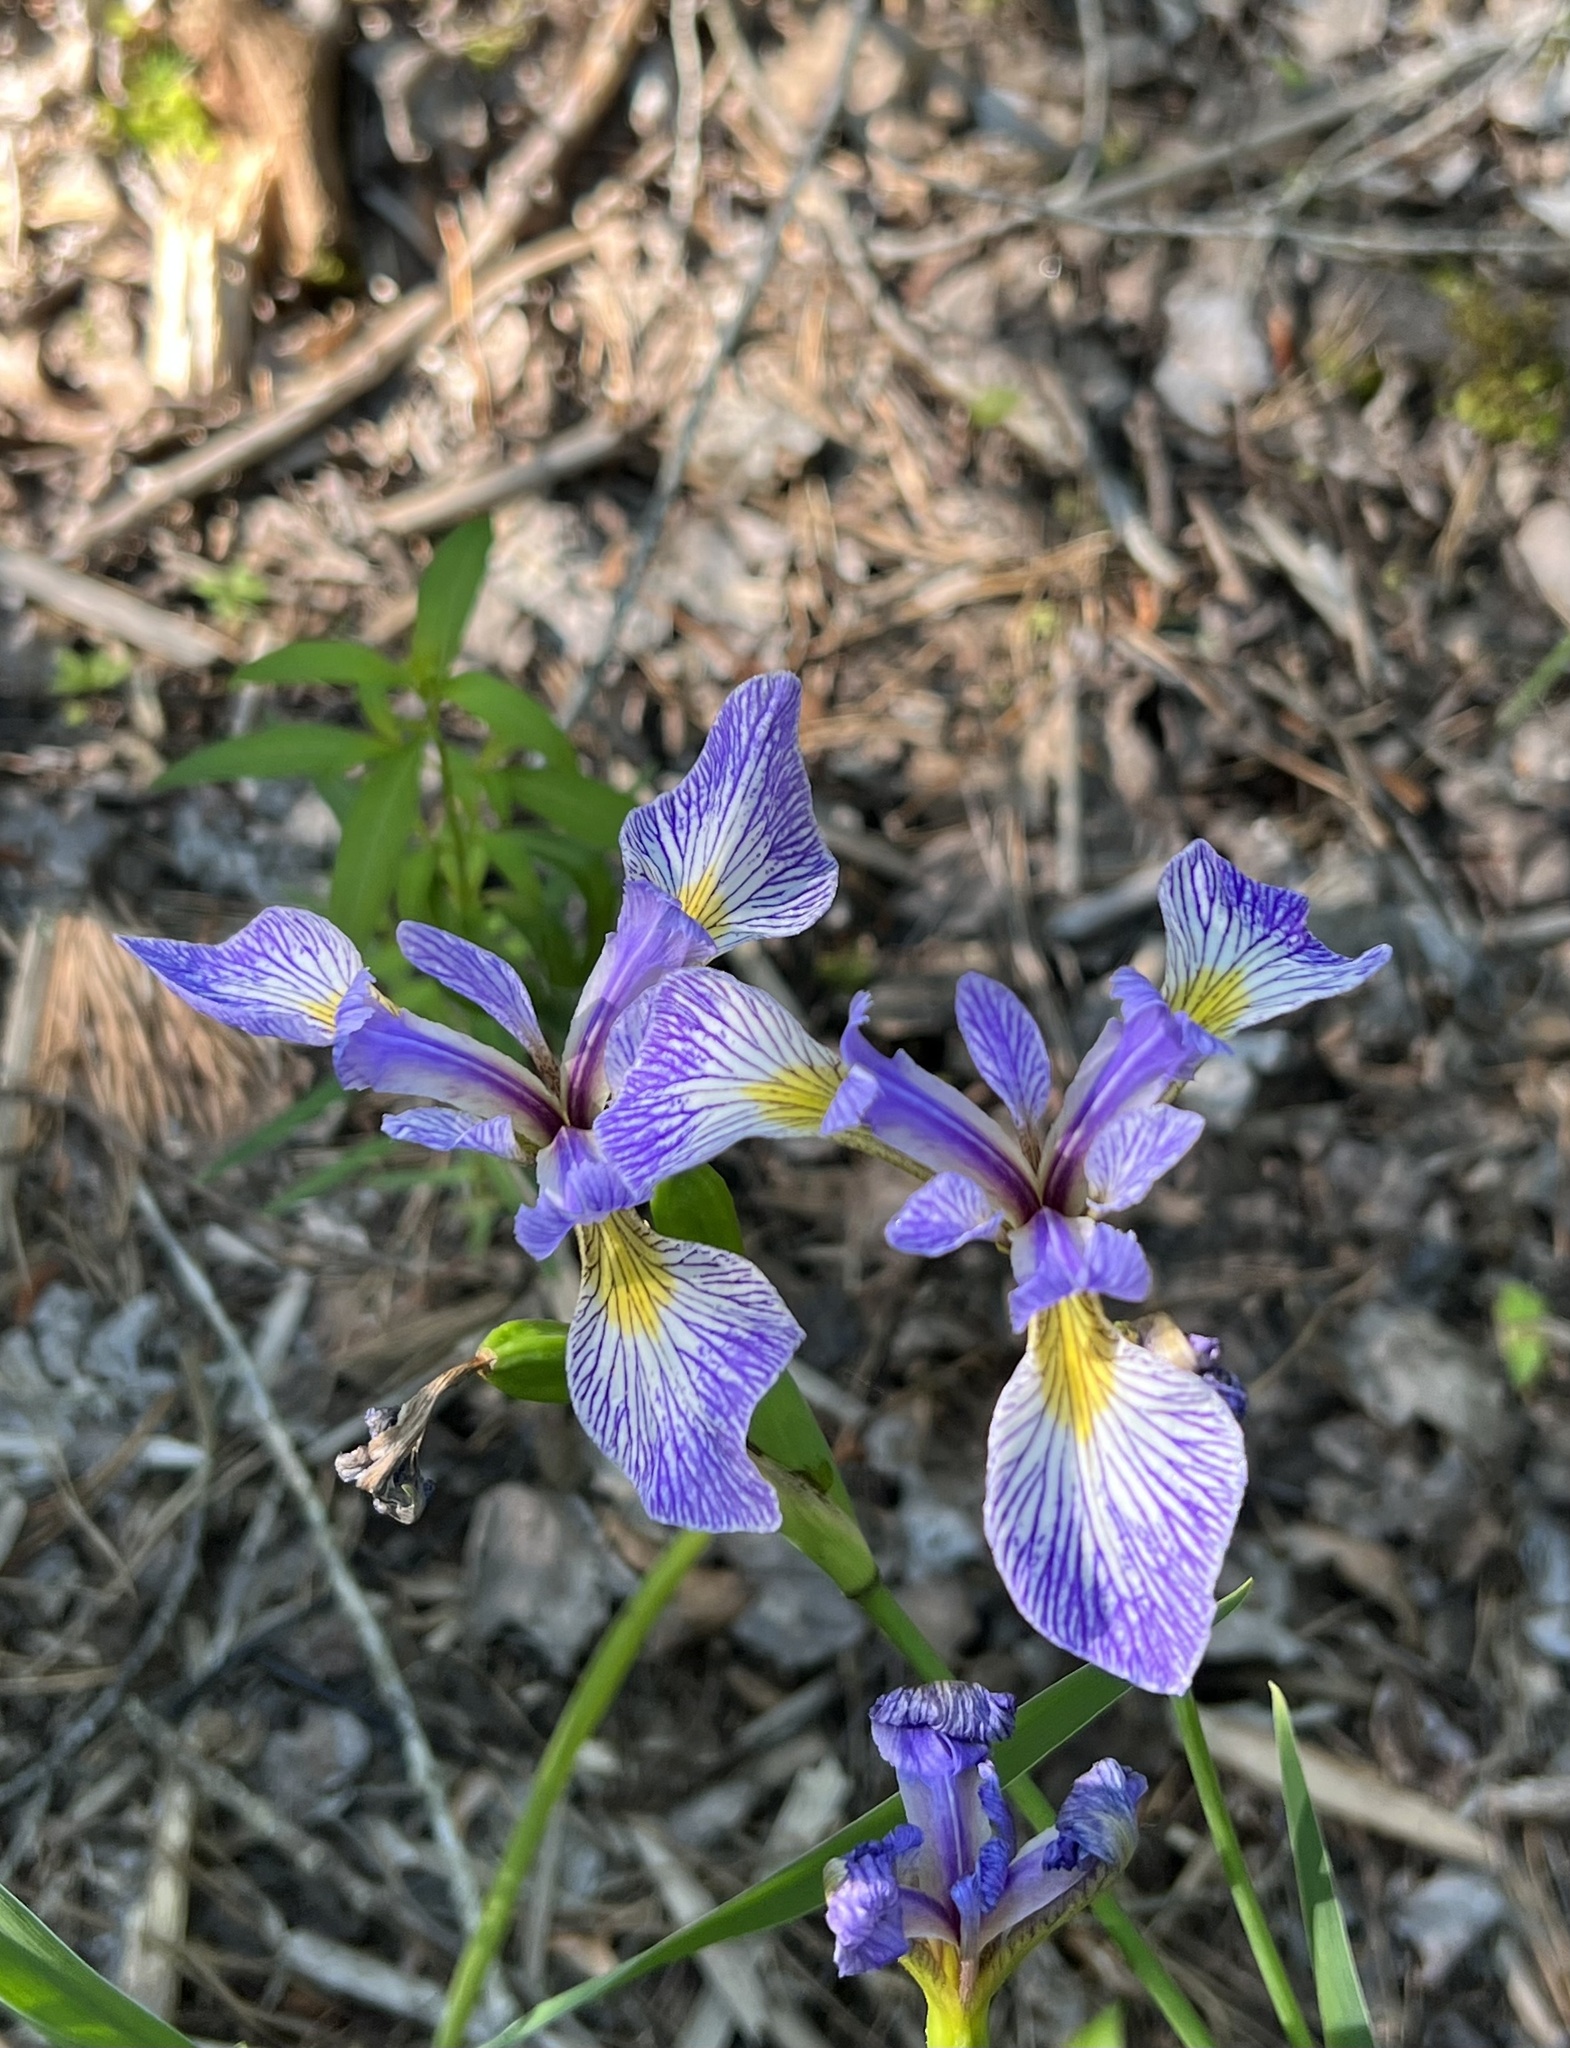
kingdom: Plantae
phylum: Tracheophyta
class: Liliopsida
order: Asparagales
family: Iridaceae
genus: Iris
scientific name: Iris versicolor
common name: Purple iris
